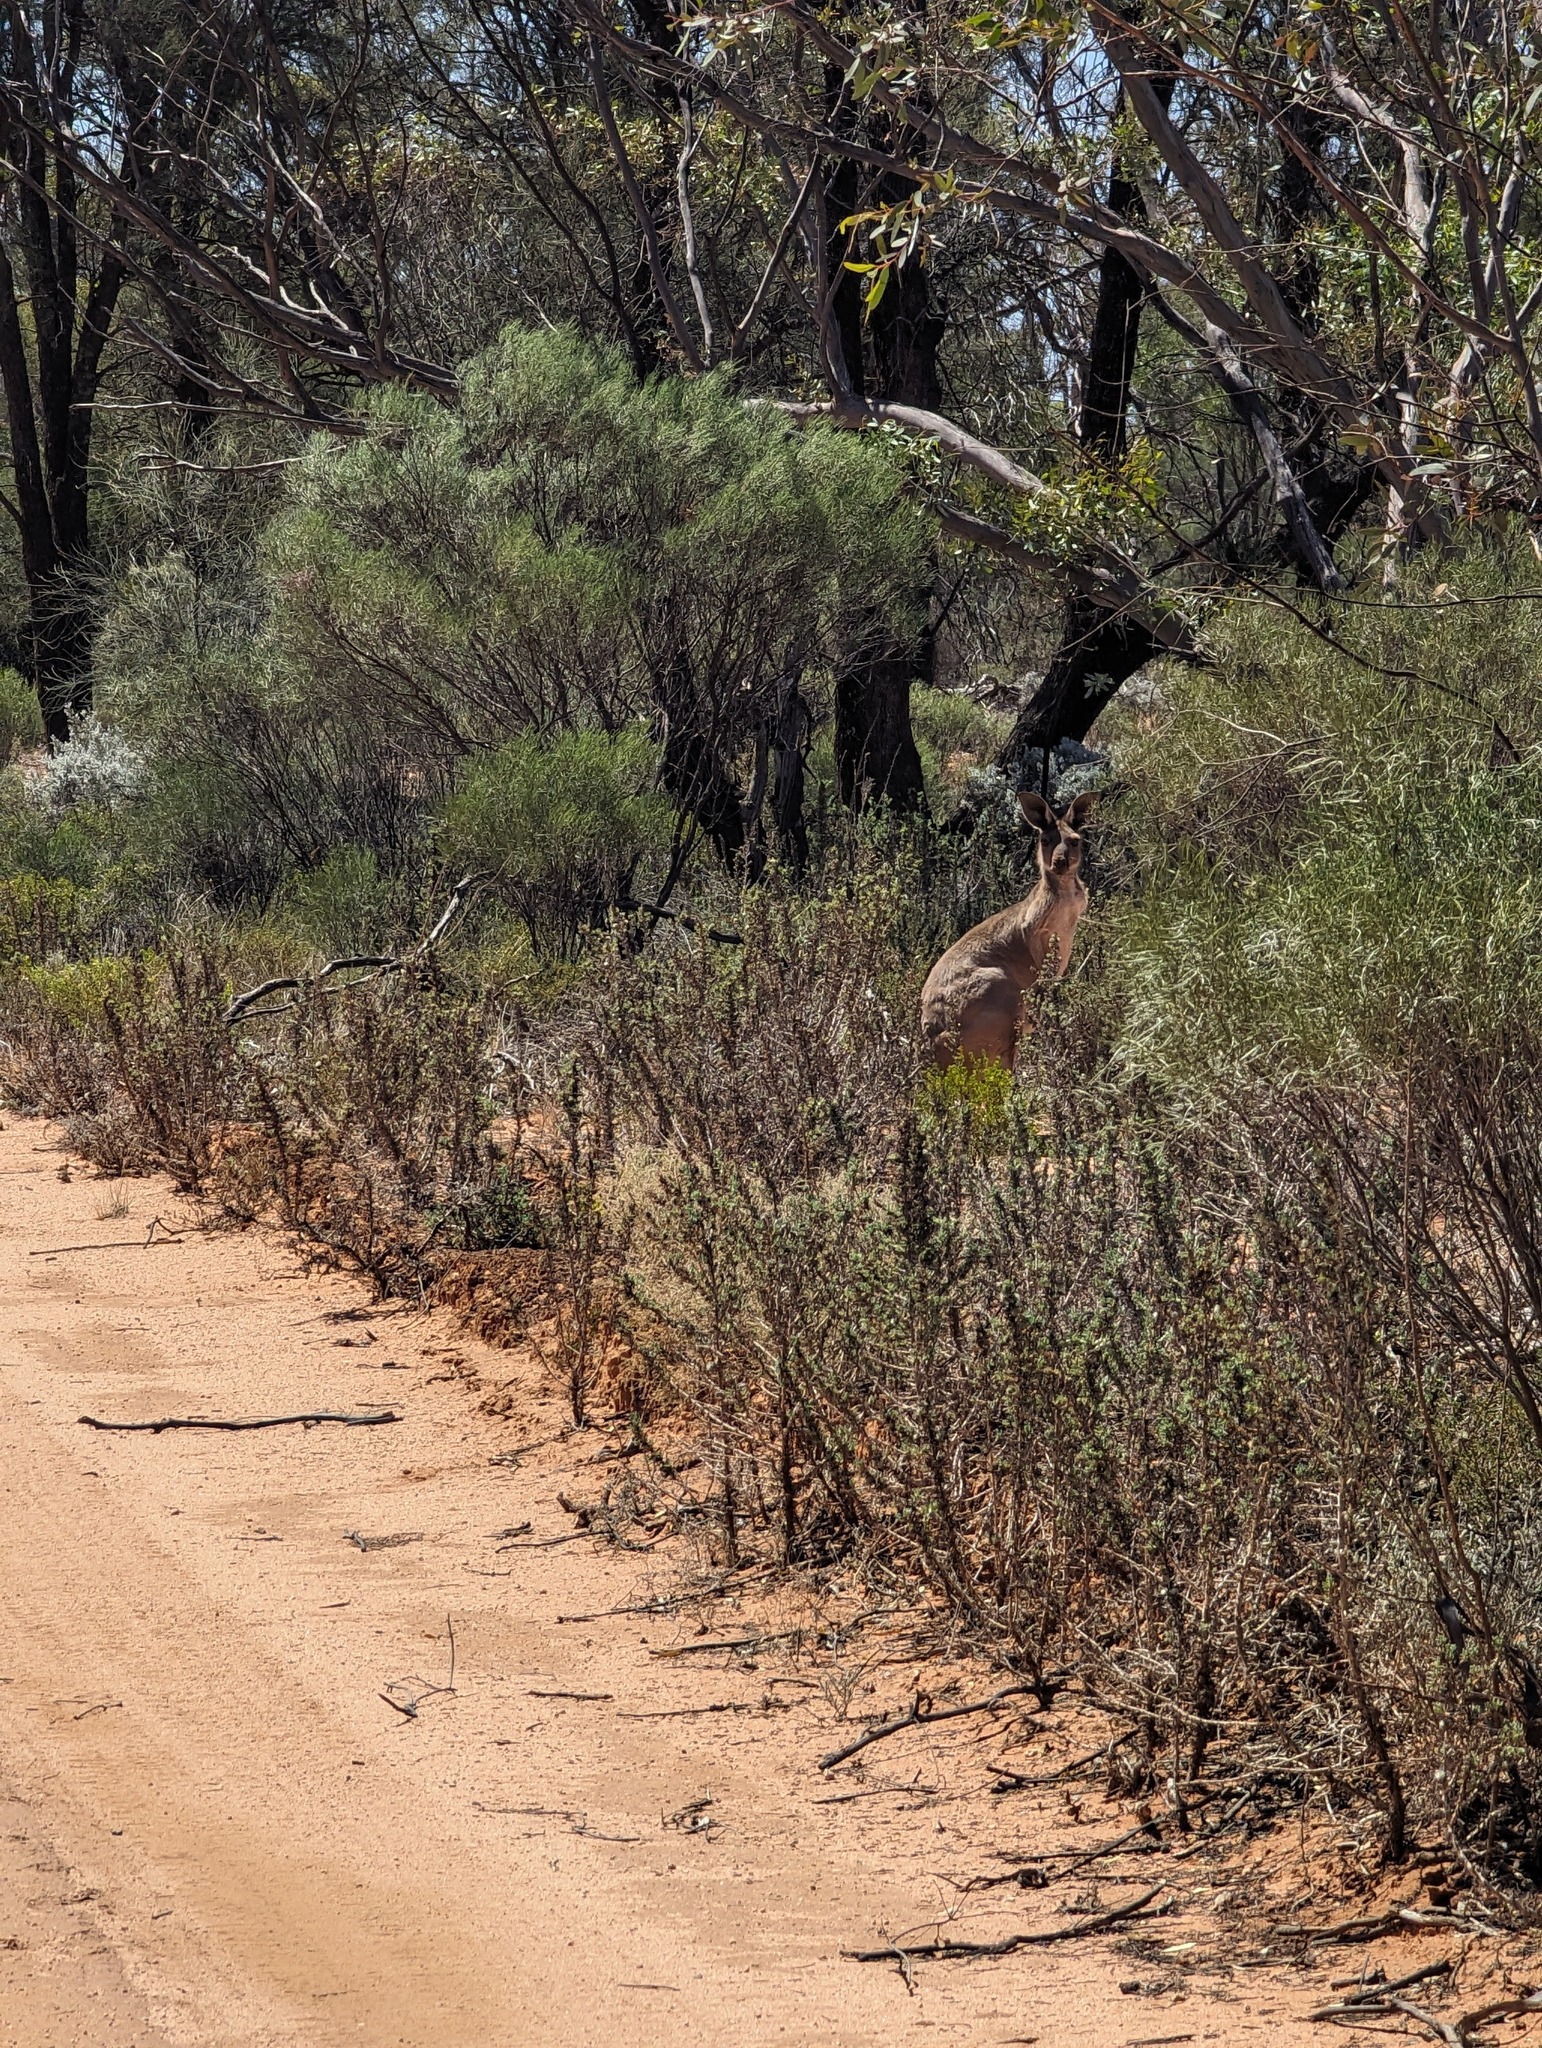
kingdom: Animalia
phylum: Chordata
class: Mammalia
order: Diprotodontia
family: Macropodidae
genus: Macropus
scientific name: Macropus fuliginosus
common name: Western grey kangaroo
